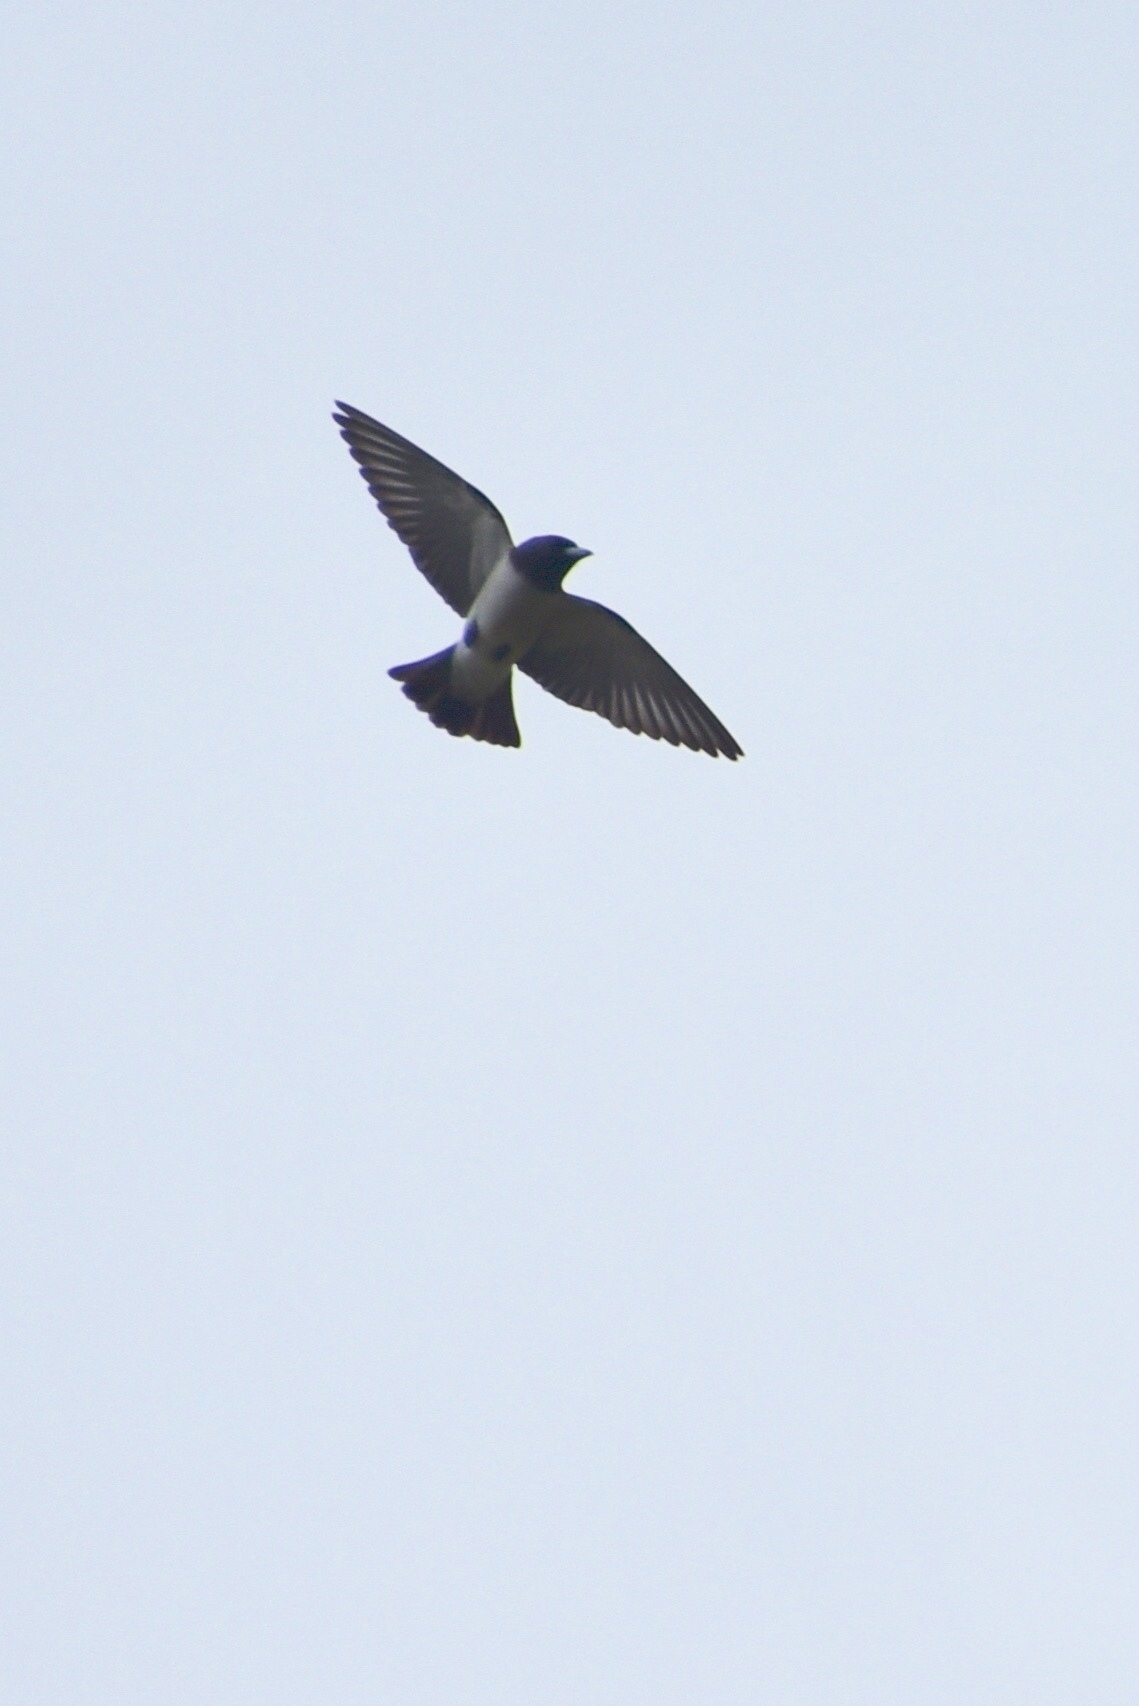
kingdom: Animalia
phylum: Chordata
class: Aves
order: Passeriformes
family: Artamidae
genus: Artamus
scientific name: Artamus leucoryn
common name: White-breasted woodswallow
